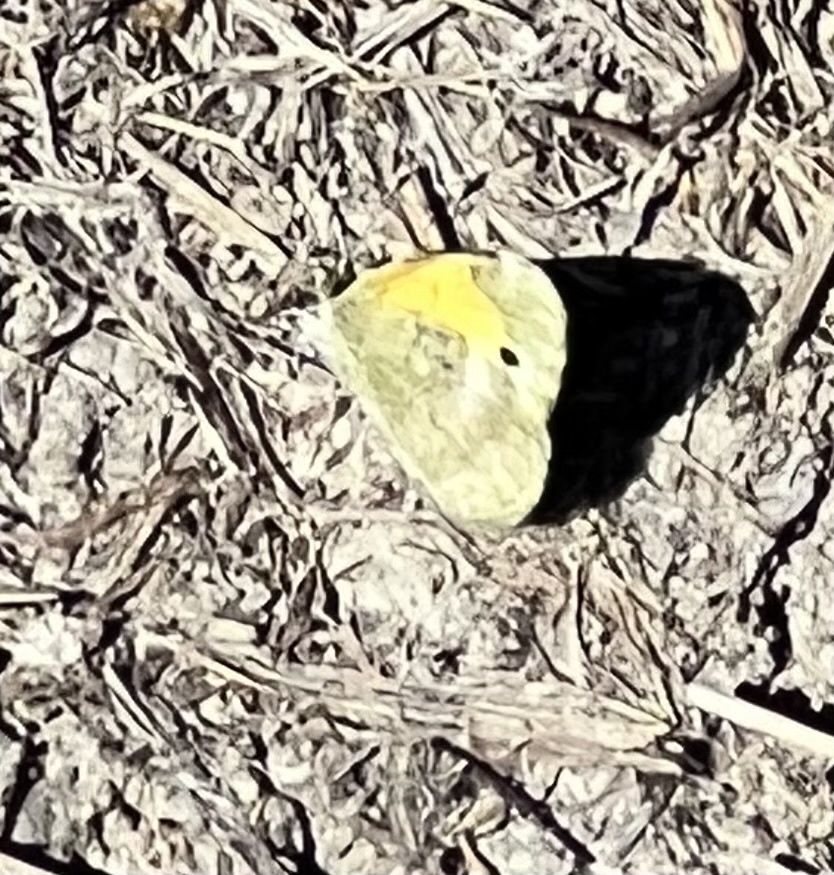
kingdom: Animalia
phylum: Arthropoda
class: Insecta
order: Lepidoptera
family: Pieridae
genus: Nathalis
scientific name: Nathalis iole
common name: Dainty sulphur
